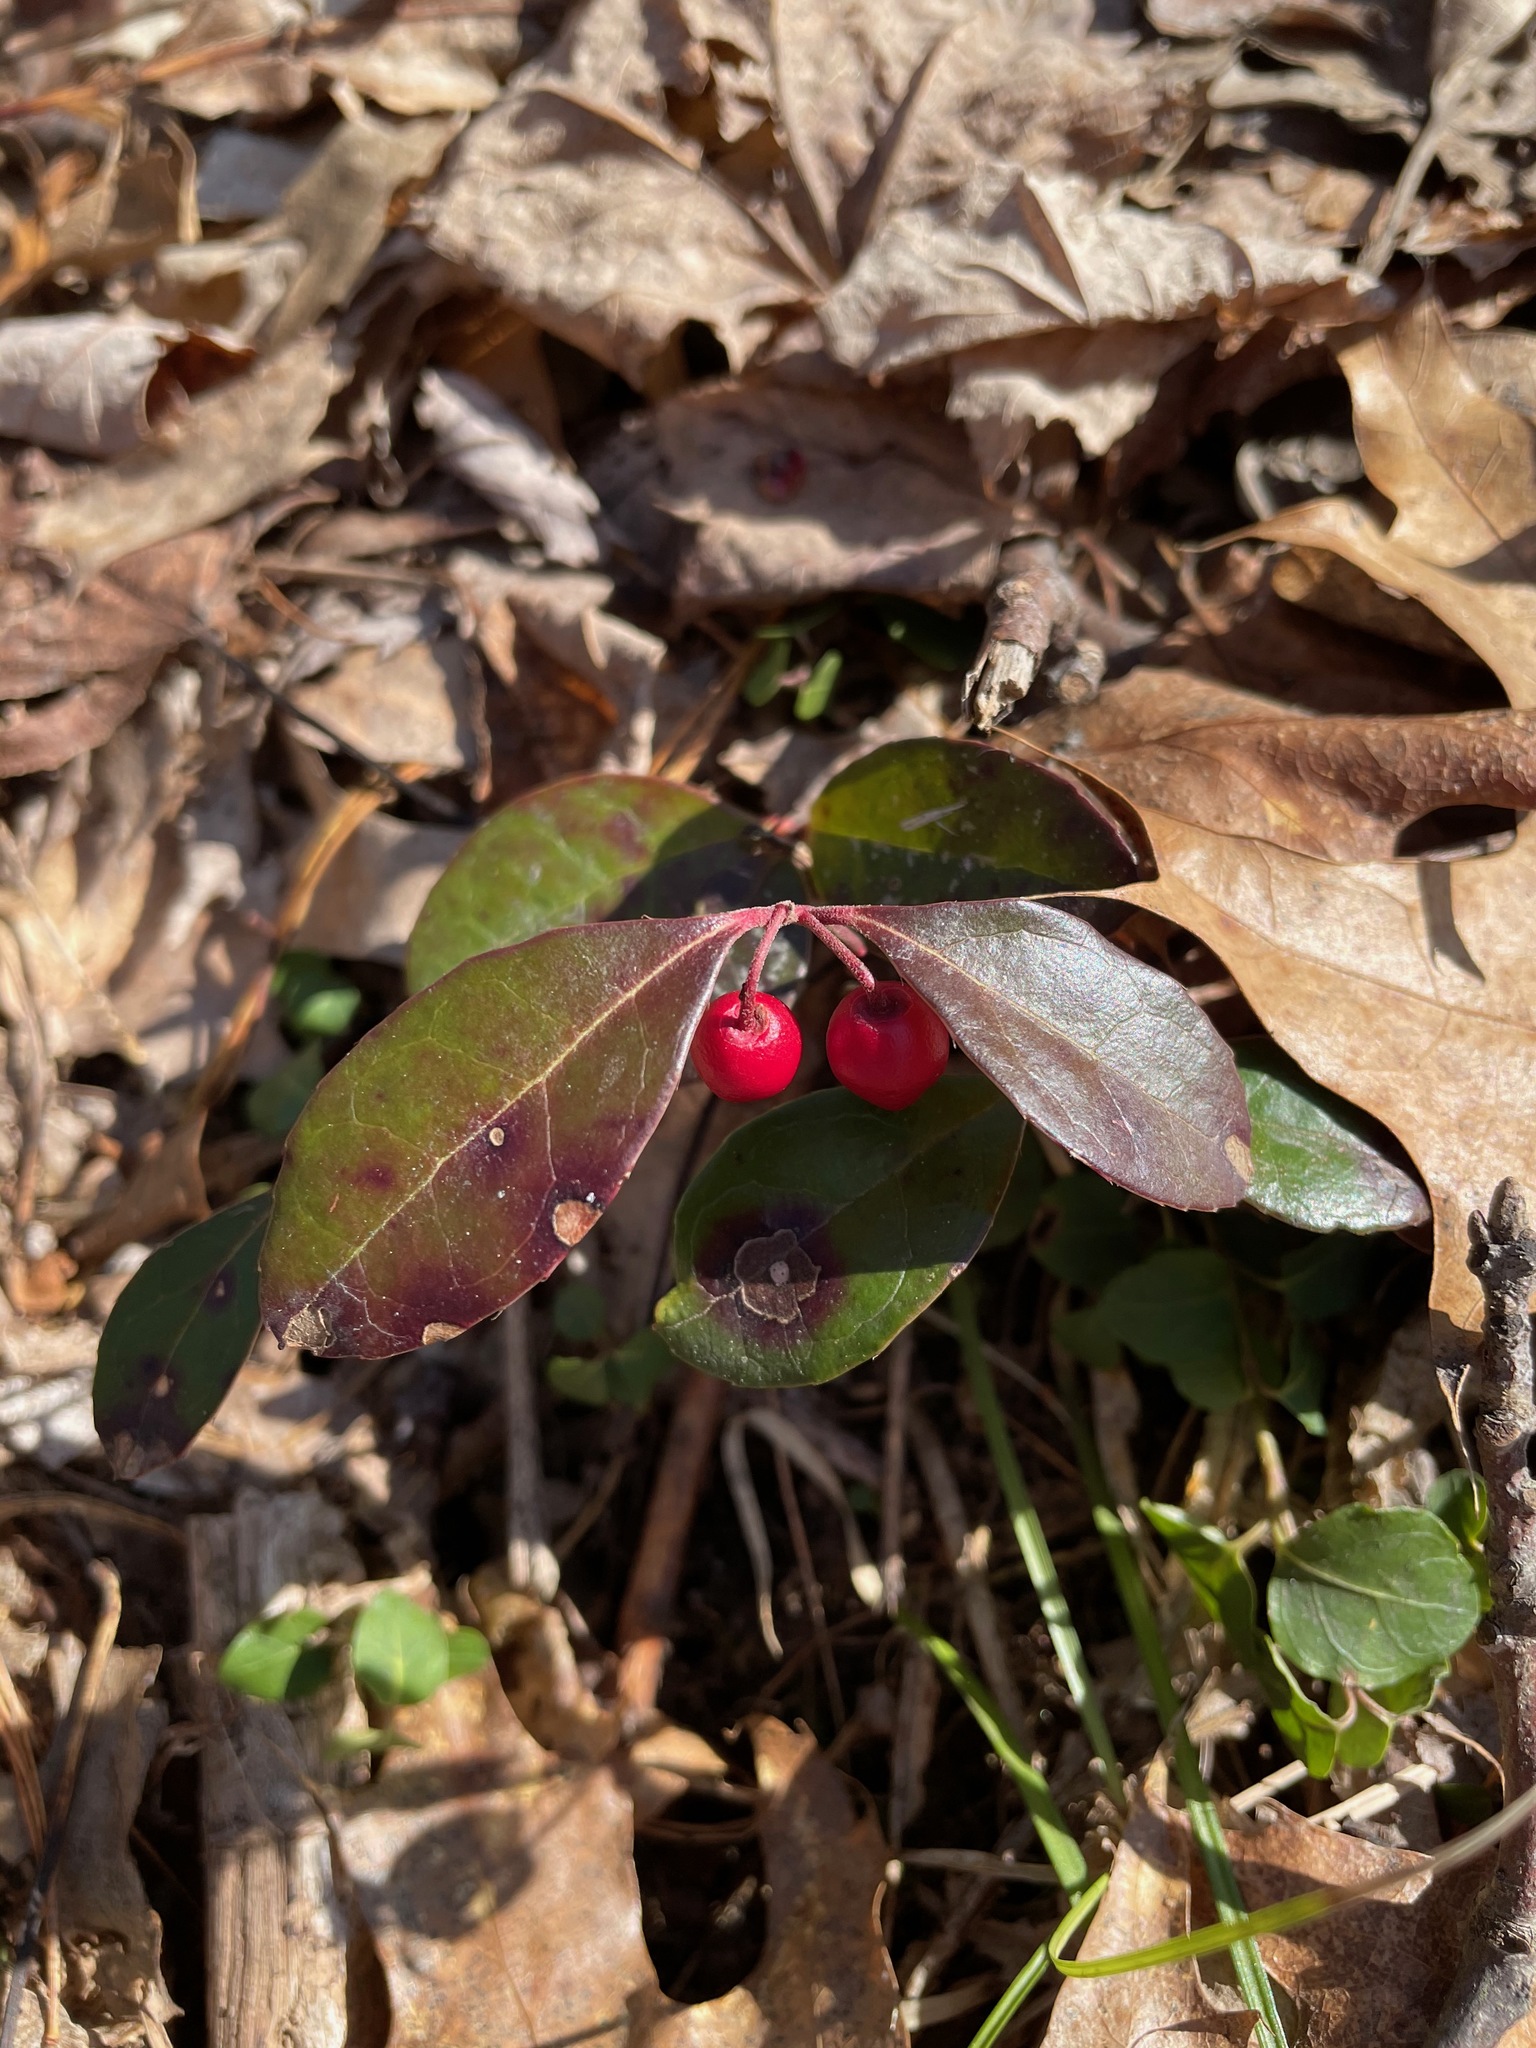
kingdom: Plantae
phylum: Tracheophyta
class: Magnoliopsida
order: Ericales
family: Ericaceae
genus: Gaultheria
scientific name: Gaultheria procumbens
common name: Checkerberry
